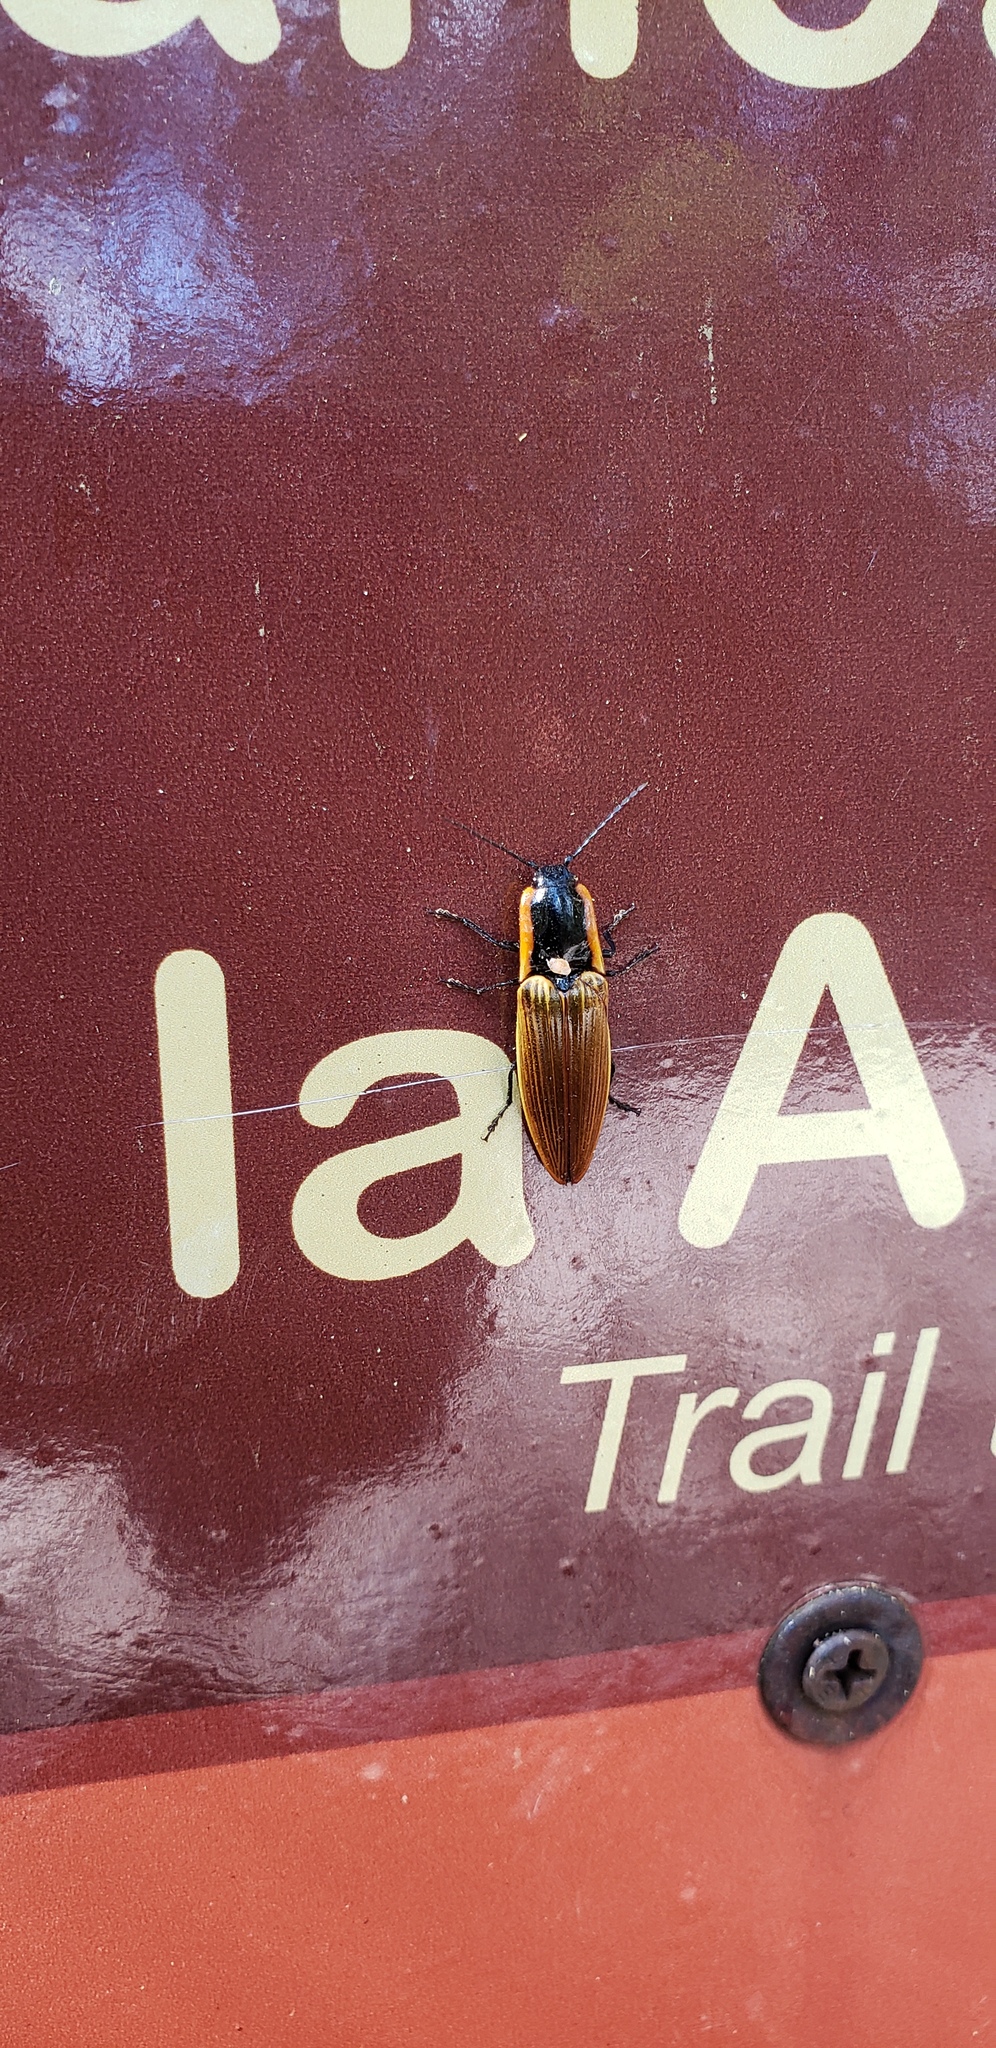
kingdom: Animalia
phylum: Arthropoda
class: Insecta
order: Coleoptera
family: Elateridae
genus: Semiotus
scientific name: Semiotus
